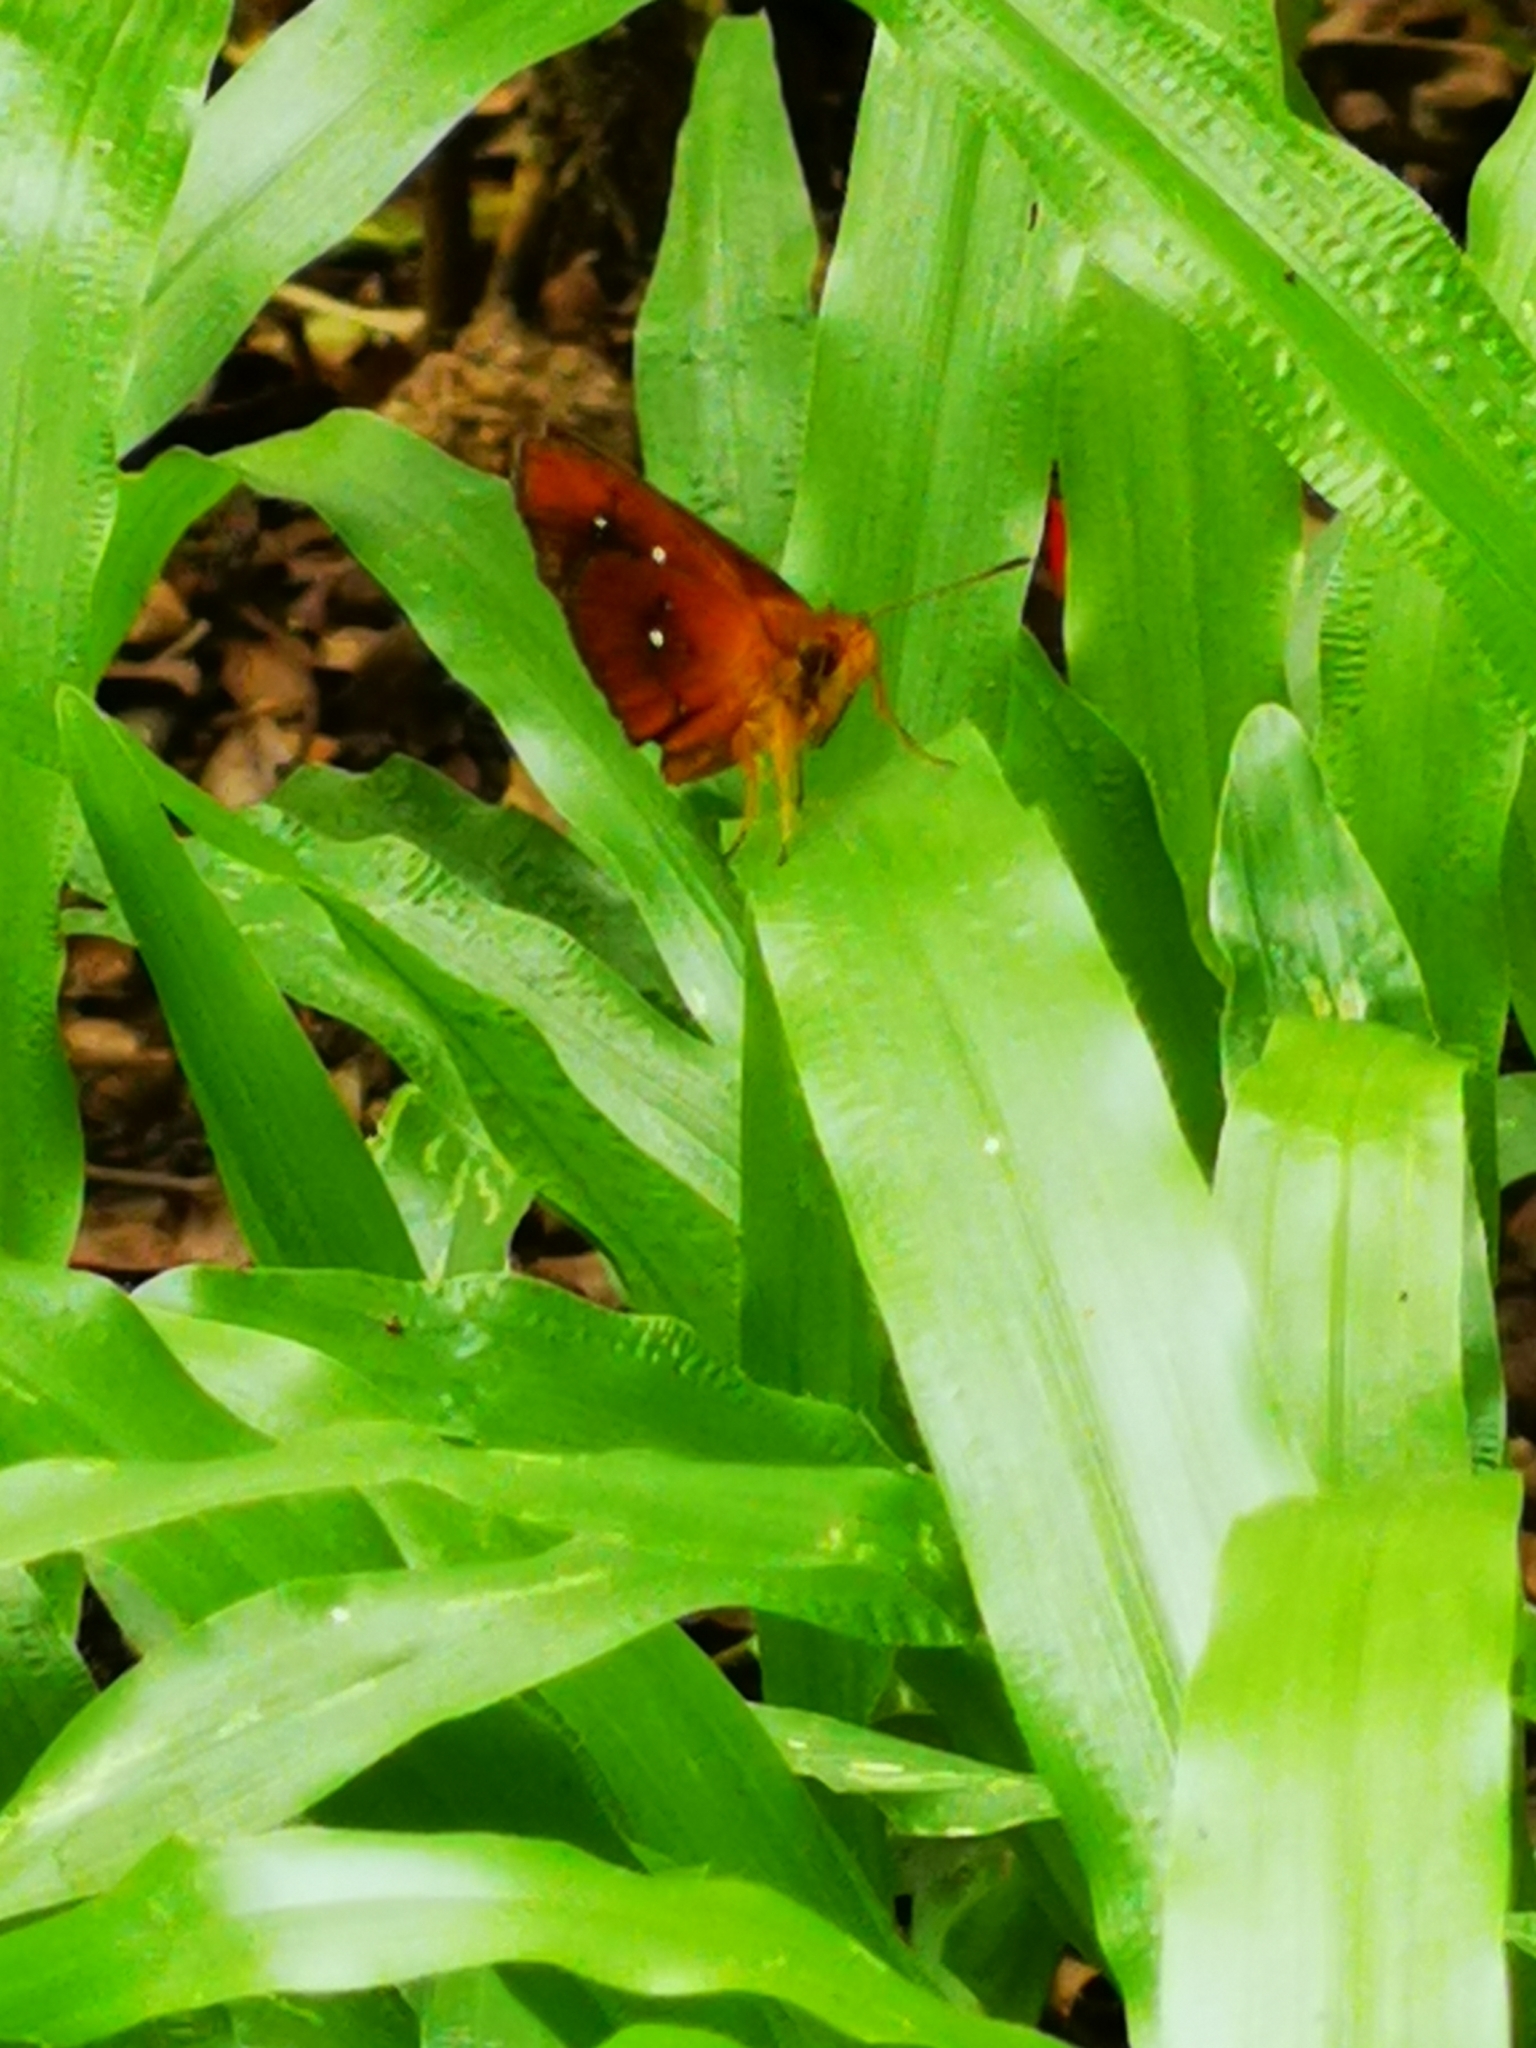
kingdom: Animalia
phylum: Arthropoda
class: Insecta
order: Lepidoptera
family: Hesperiidae
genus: Iambrix
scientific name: Iambrix salsala
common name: Chestnut bob
